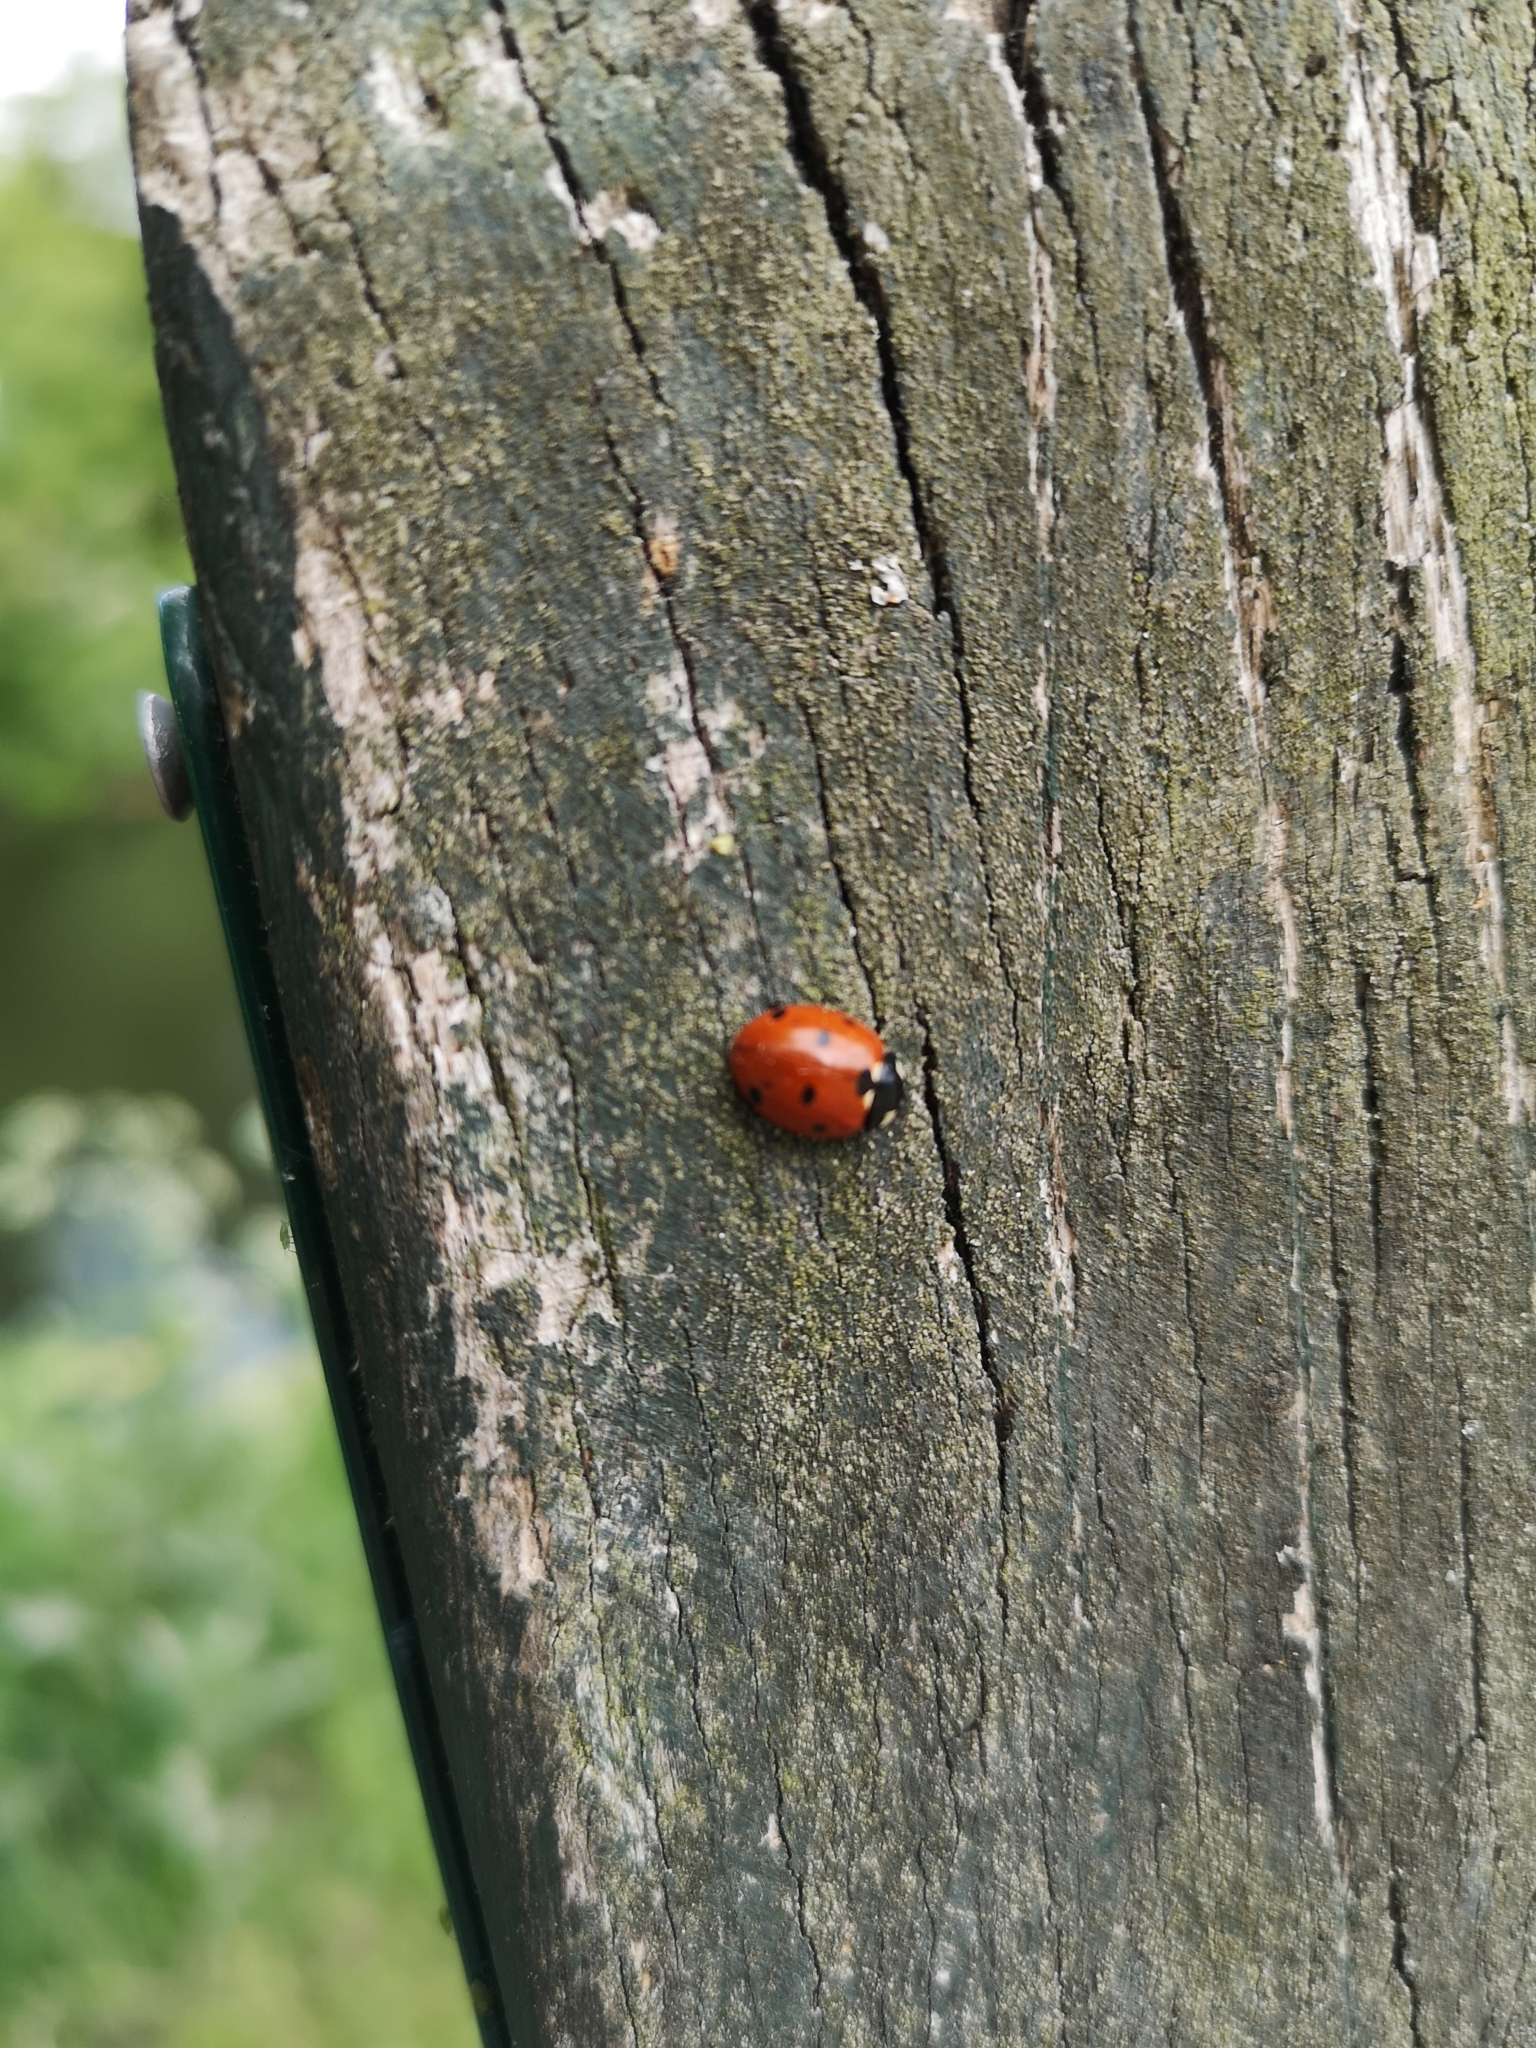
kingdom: Animalia
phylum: Arthropoda
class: Insecta
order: Coleoptera
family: Coccinellidae
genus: Coccinella
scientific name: Coccinella septempunctata
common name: Sevenspotted lady beetle
